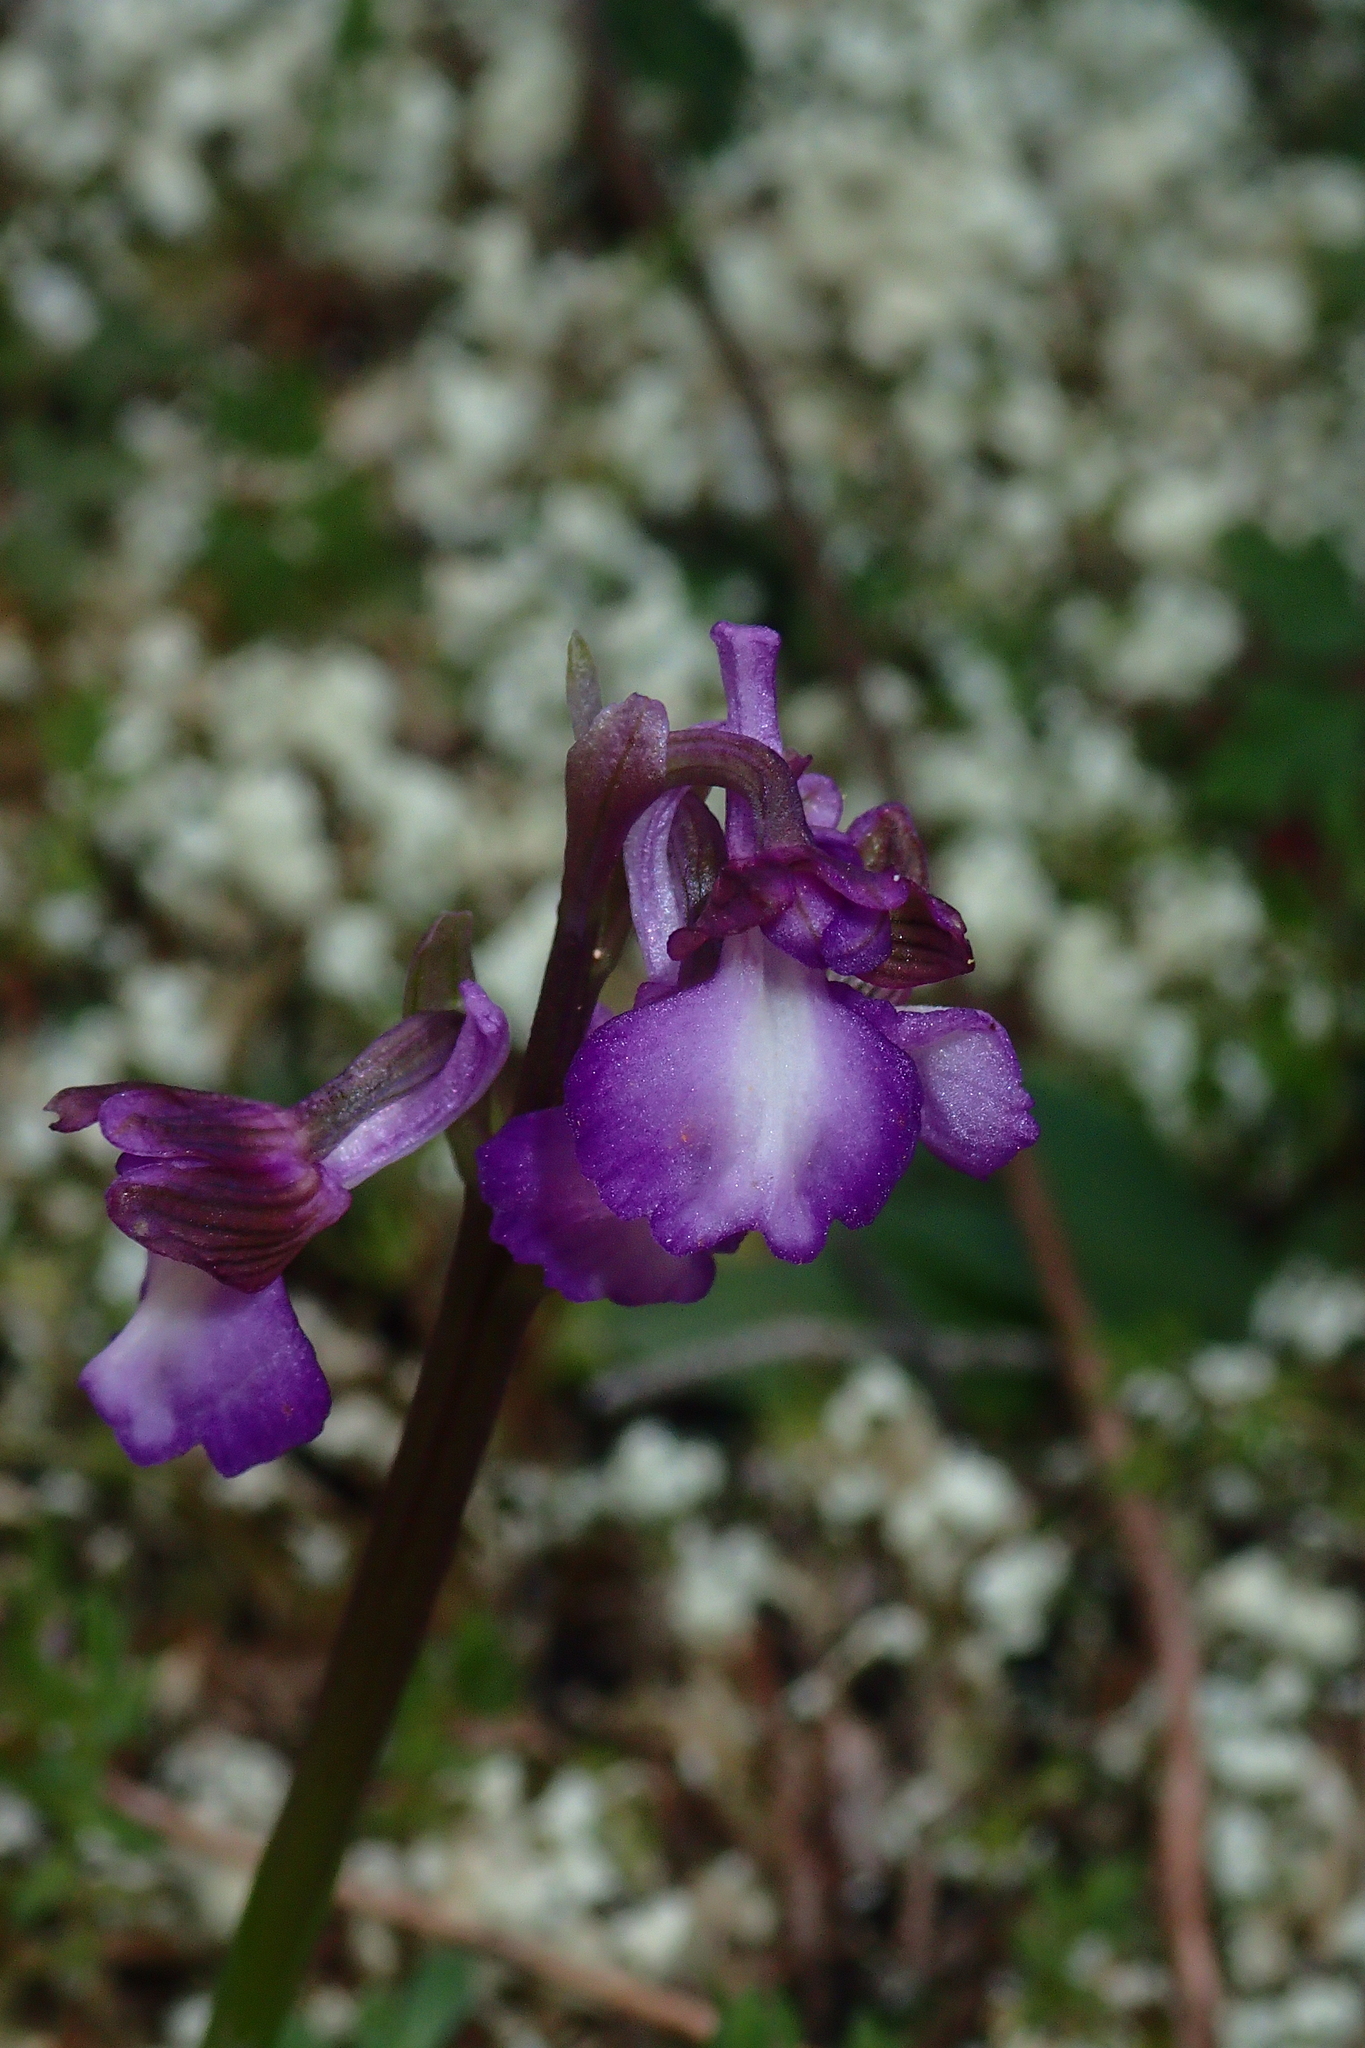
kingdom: Plantae
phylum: Tracheophyta
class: Liliopsida
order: Asparagales
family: Orchidaceae
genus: Anacamptis
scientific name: Anacamptis morio
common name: Green-winged orchid
